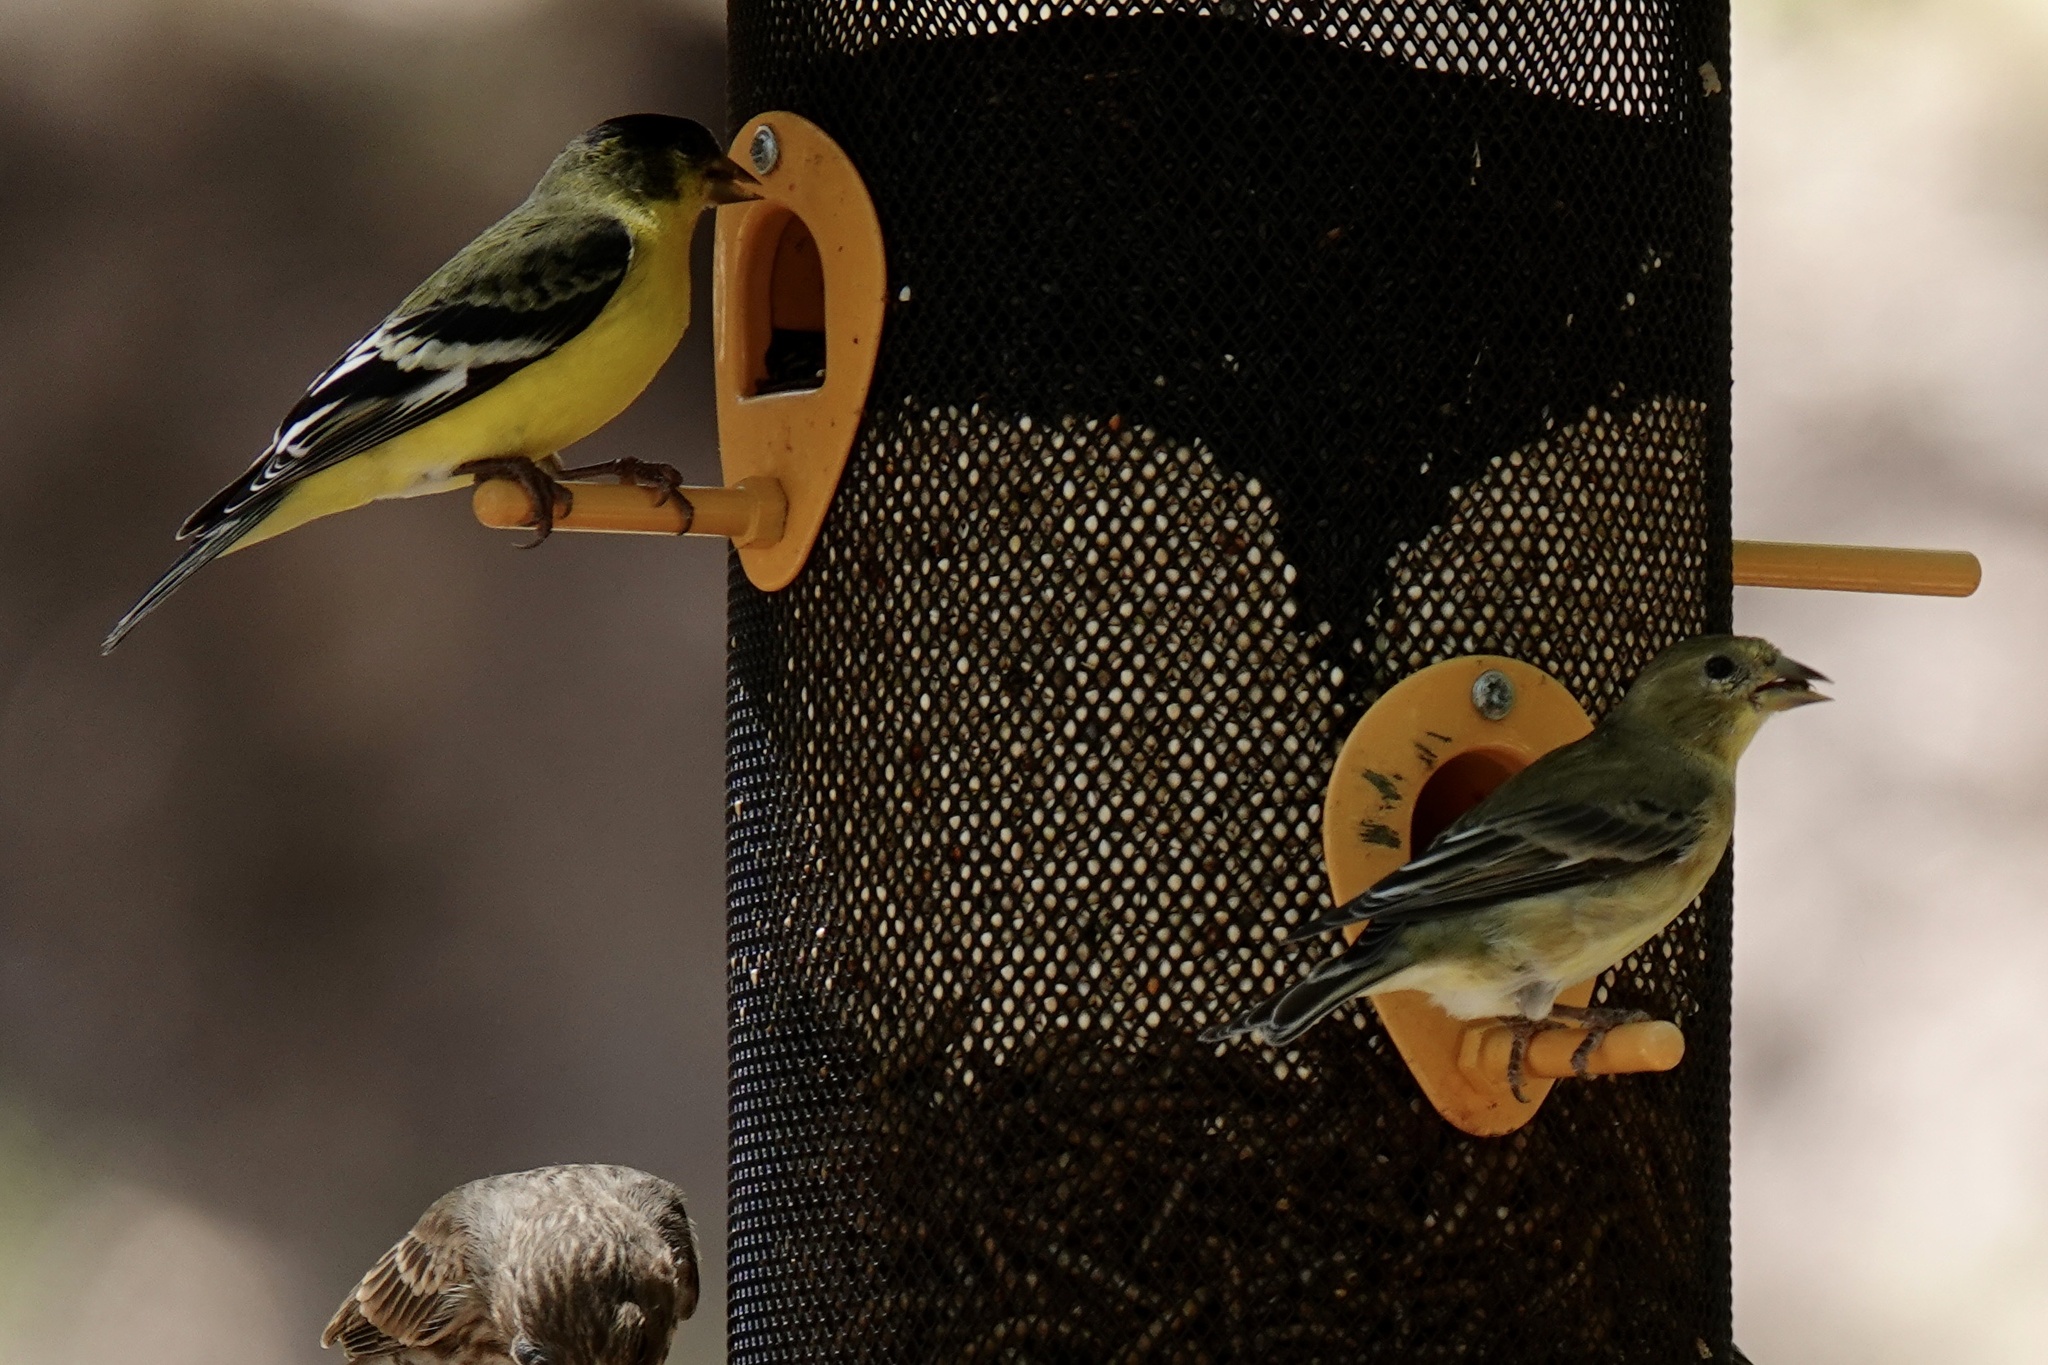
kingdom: Animalia
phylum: Chordata
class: Aves
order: Passeriformes
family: Fringillidae
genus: Spinus
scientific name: Spinus psaltria
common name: Lesser goldfinch
